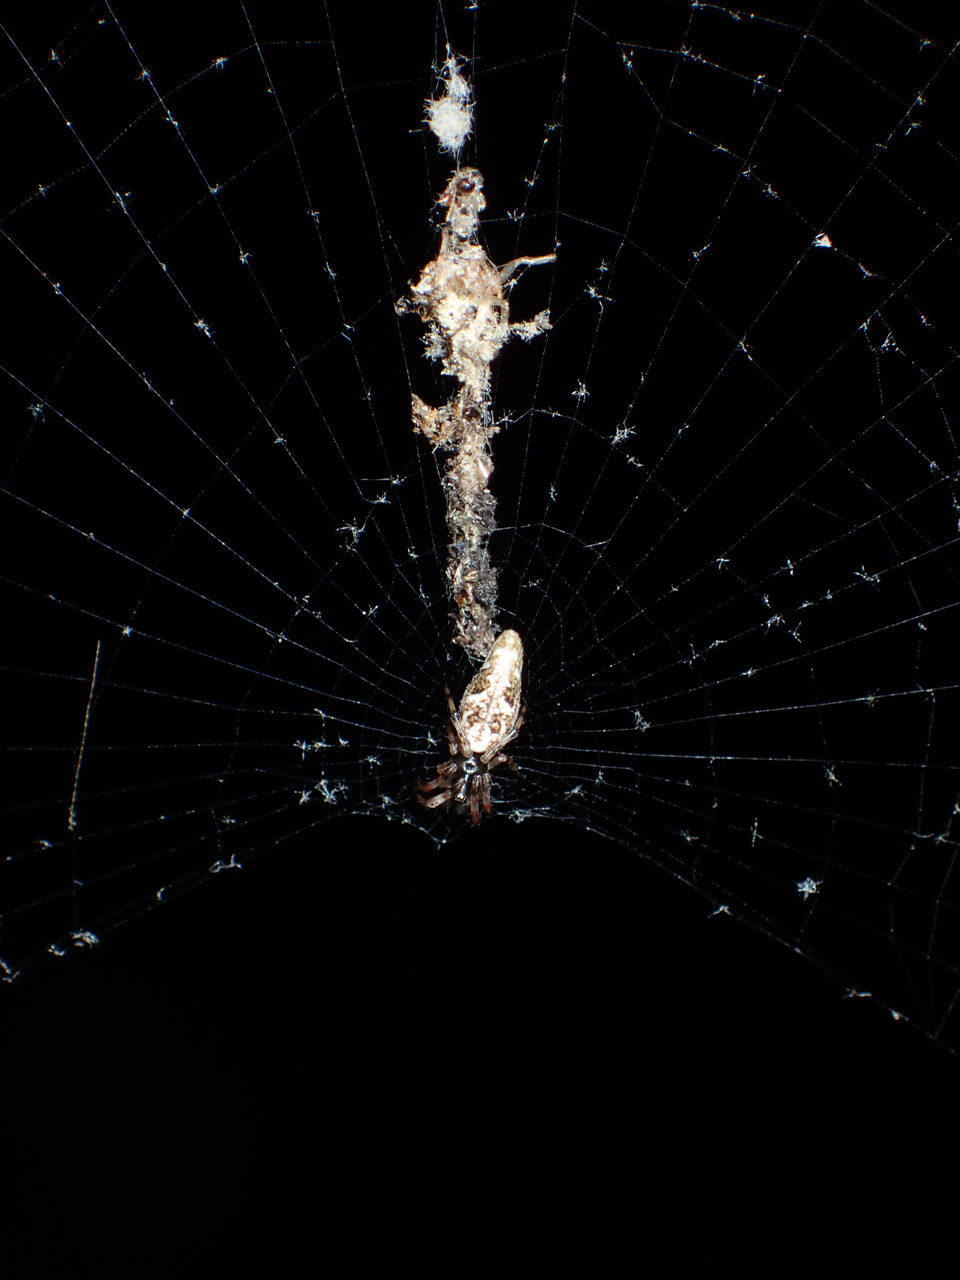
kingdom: Animalia
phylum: Arthropoda
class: Arachnida
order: Araneae
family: Araneidae
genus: Cyclosa
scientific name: Cyclosa caroli
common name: Orb weavers
